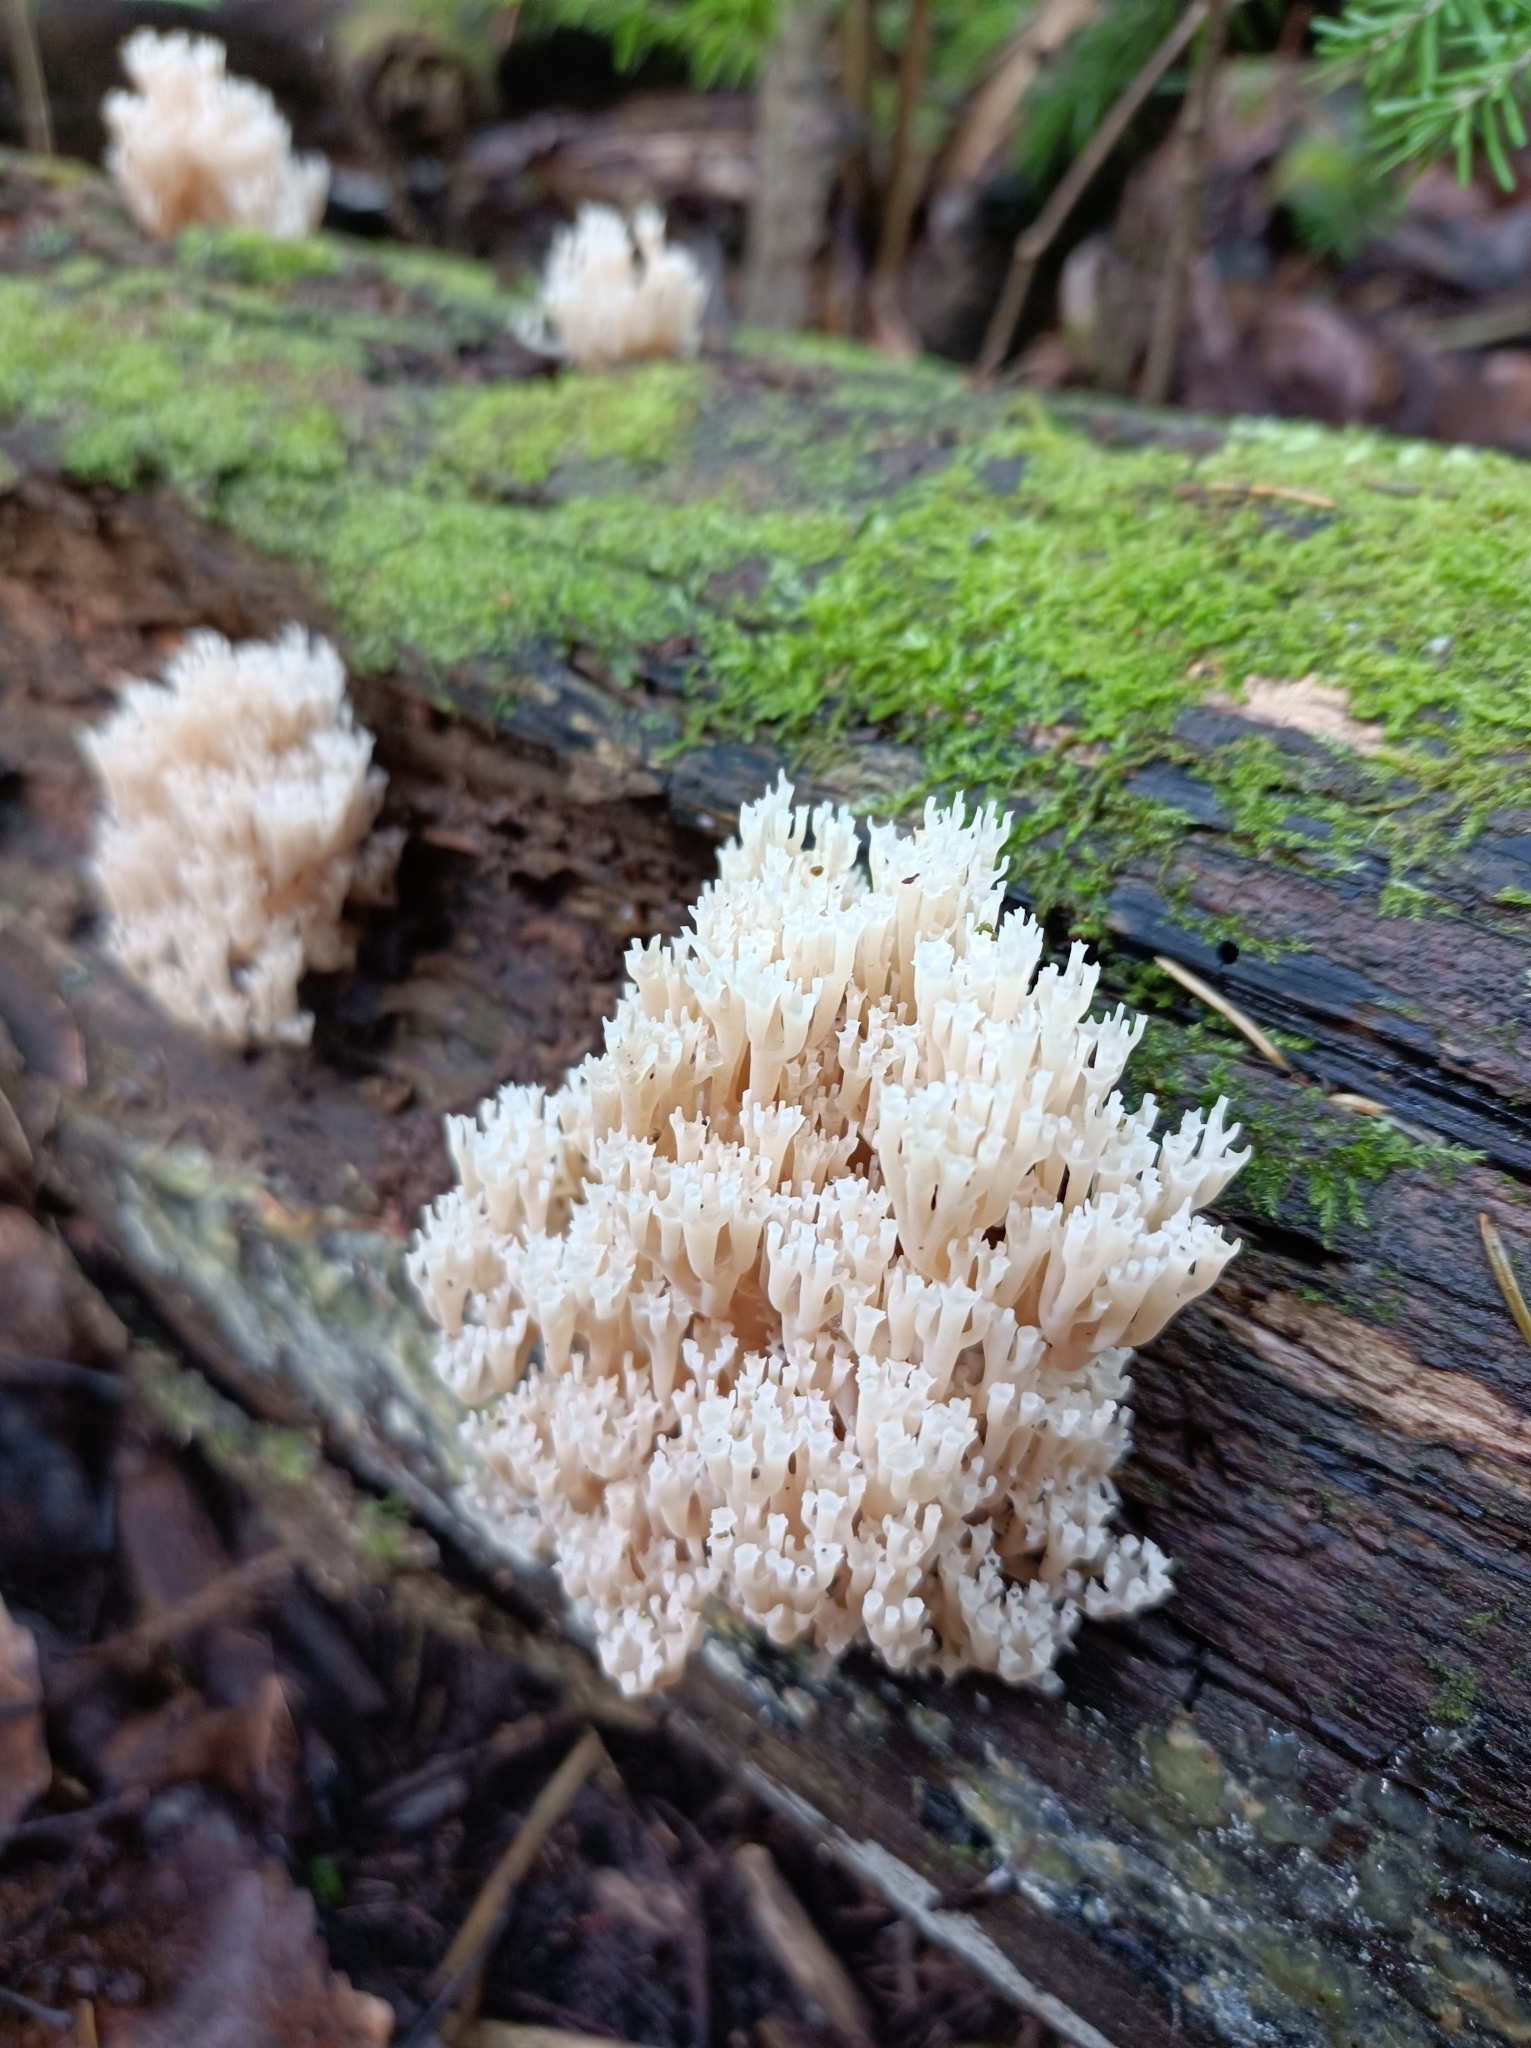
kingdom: Fungi
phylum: Basidiomycota
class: Agaricomycetes
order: Russulales
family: Auriscalpiaceae
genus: Artomyces
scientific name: Artomyces pyxidatus
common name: Crown-tipped coral fungus
